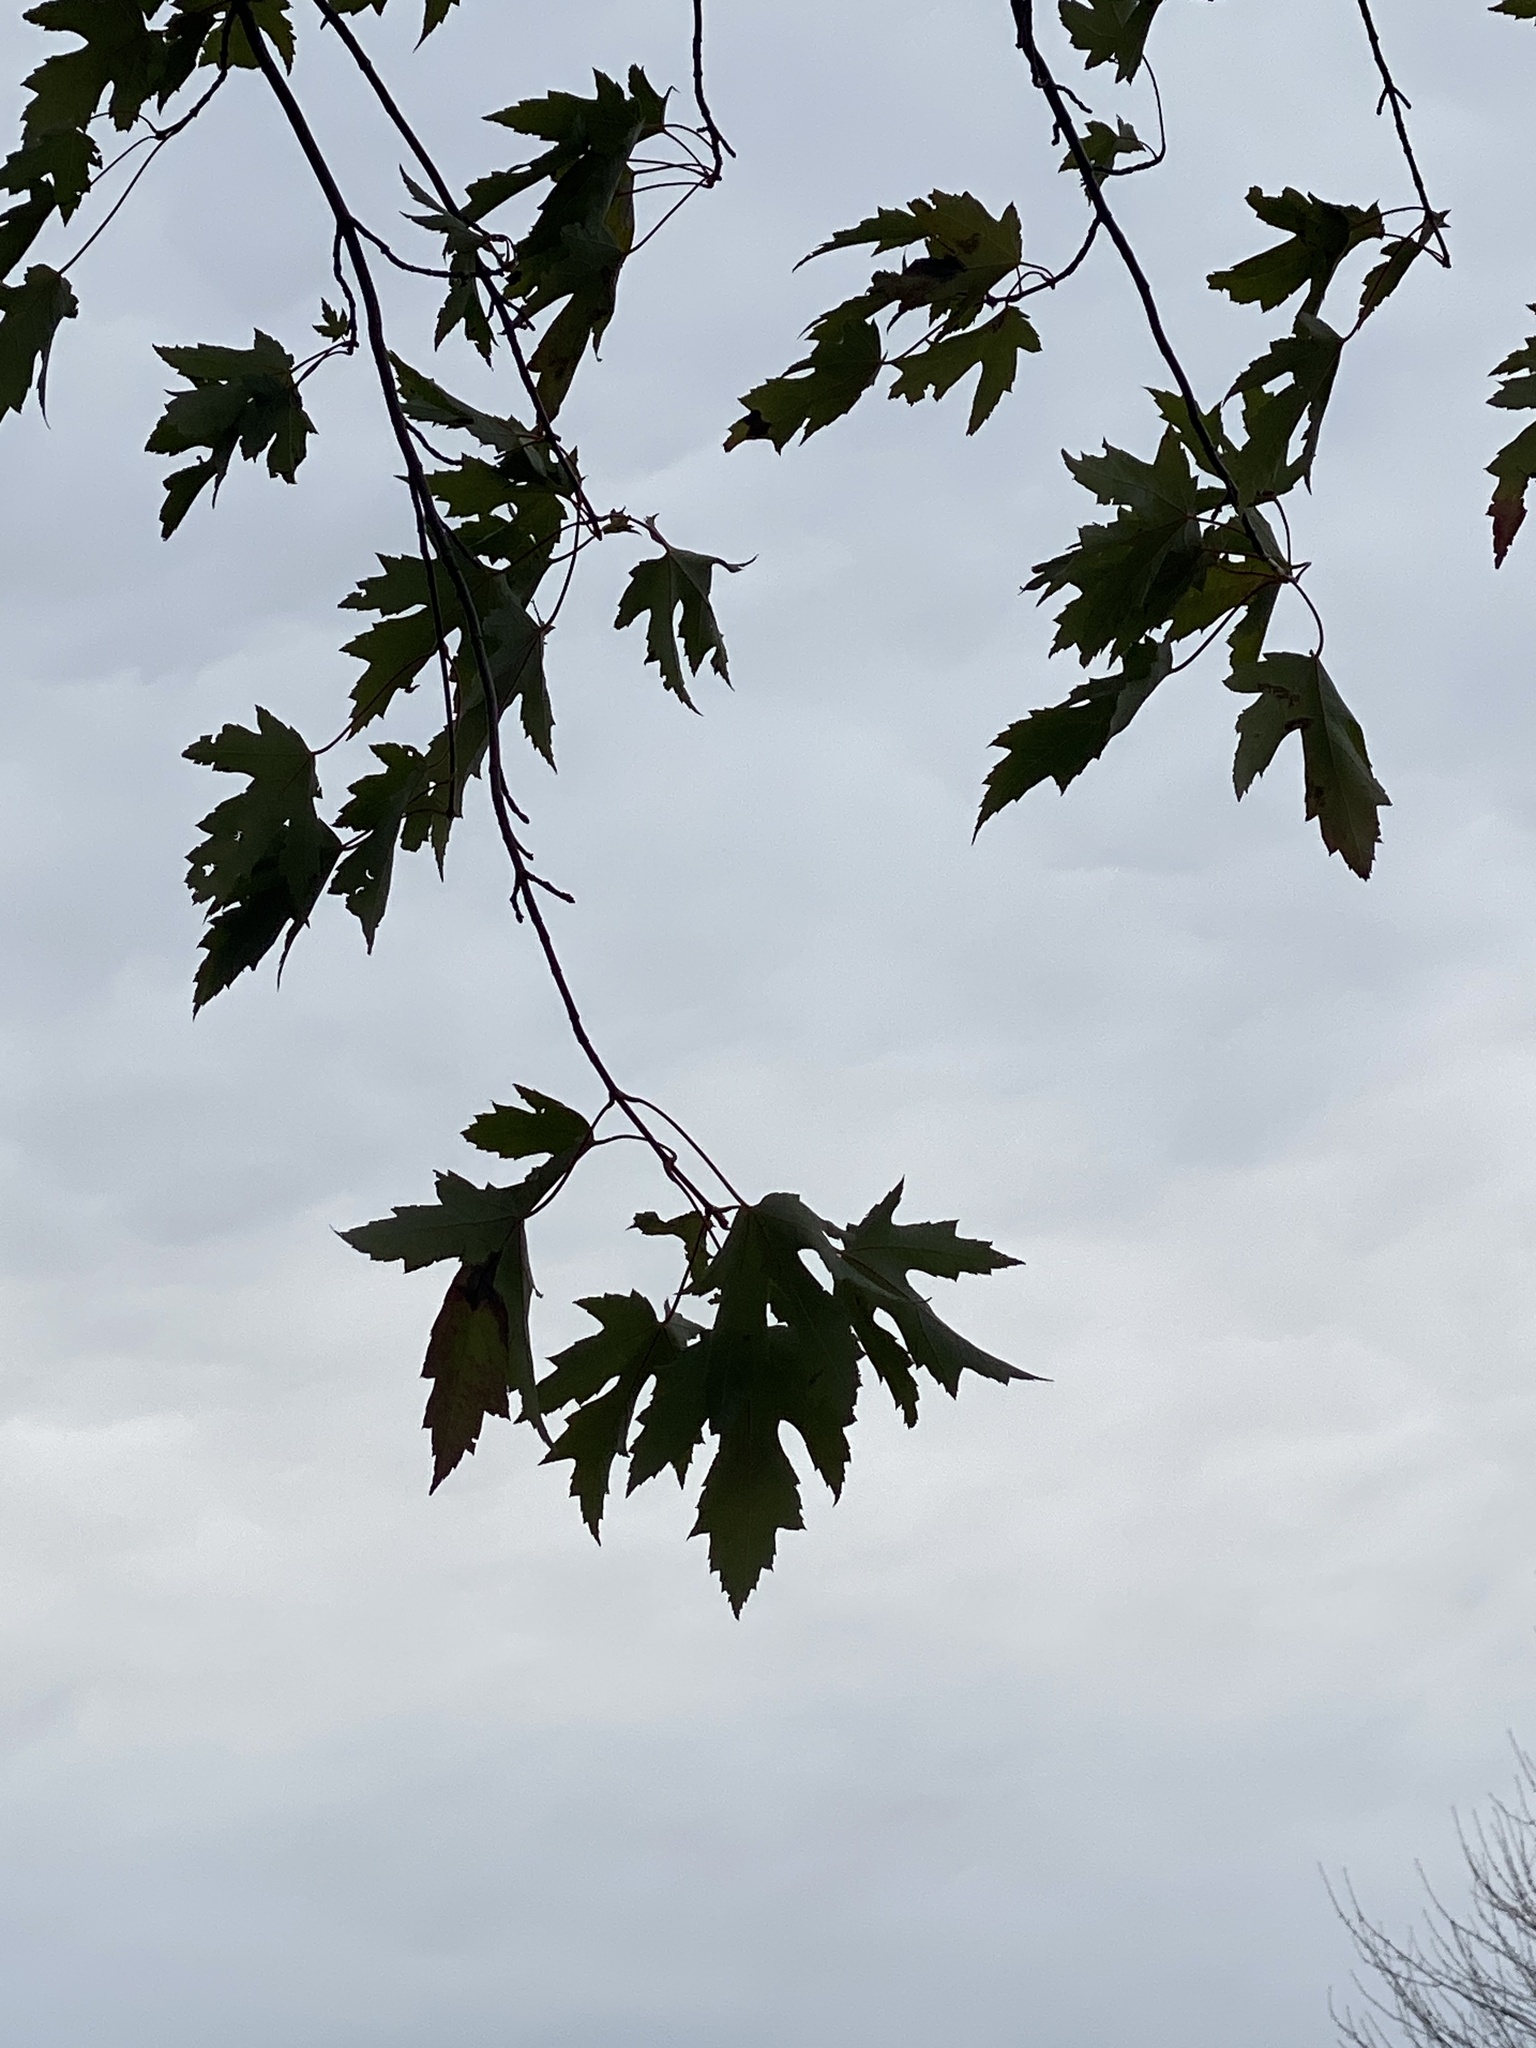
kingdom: Plantae
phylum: Tracheophyta
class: Magnoliopsida
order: Sapindales
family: Sapindaceae
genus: Acer
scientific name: Acer saccharinum
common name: Silver maple
